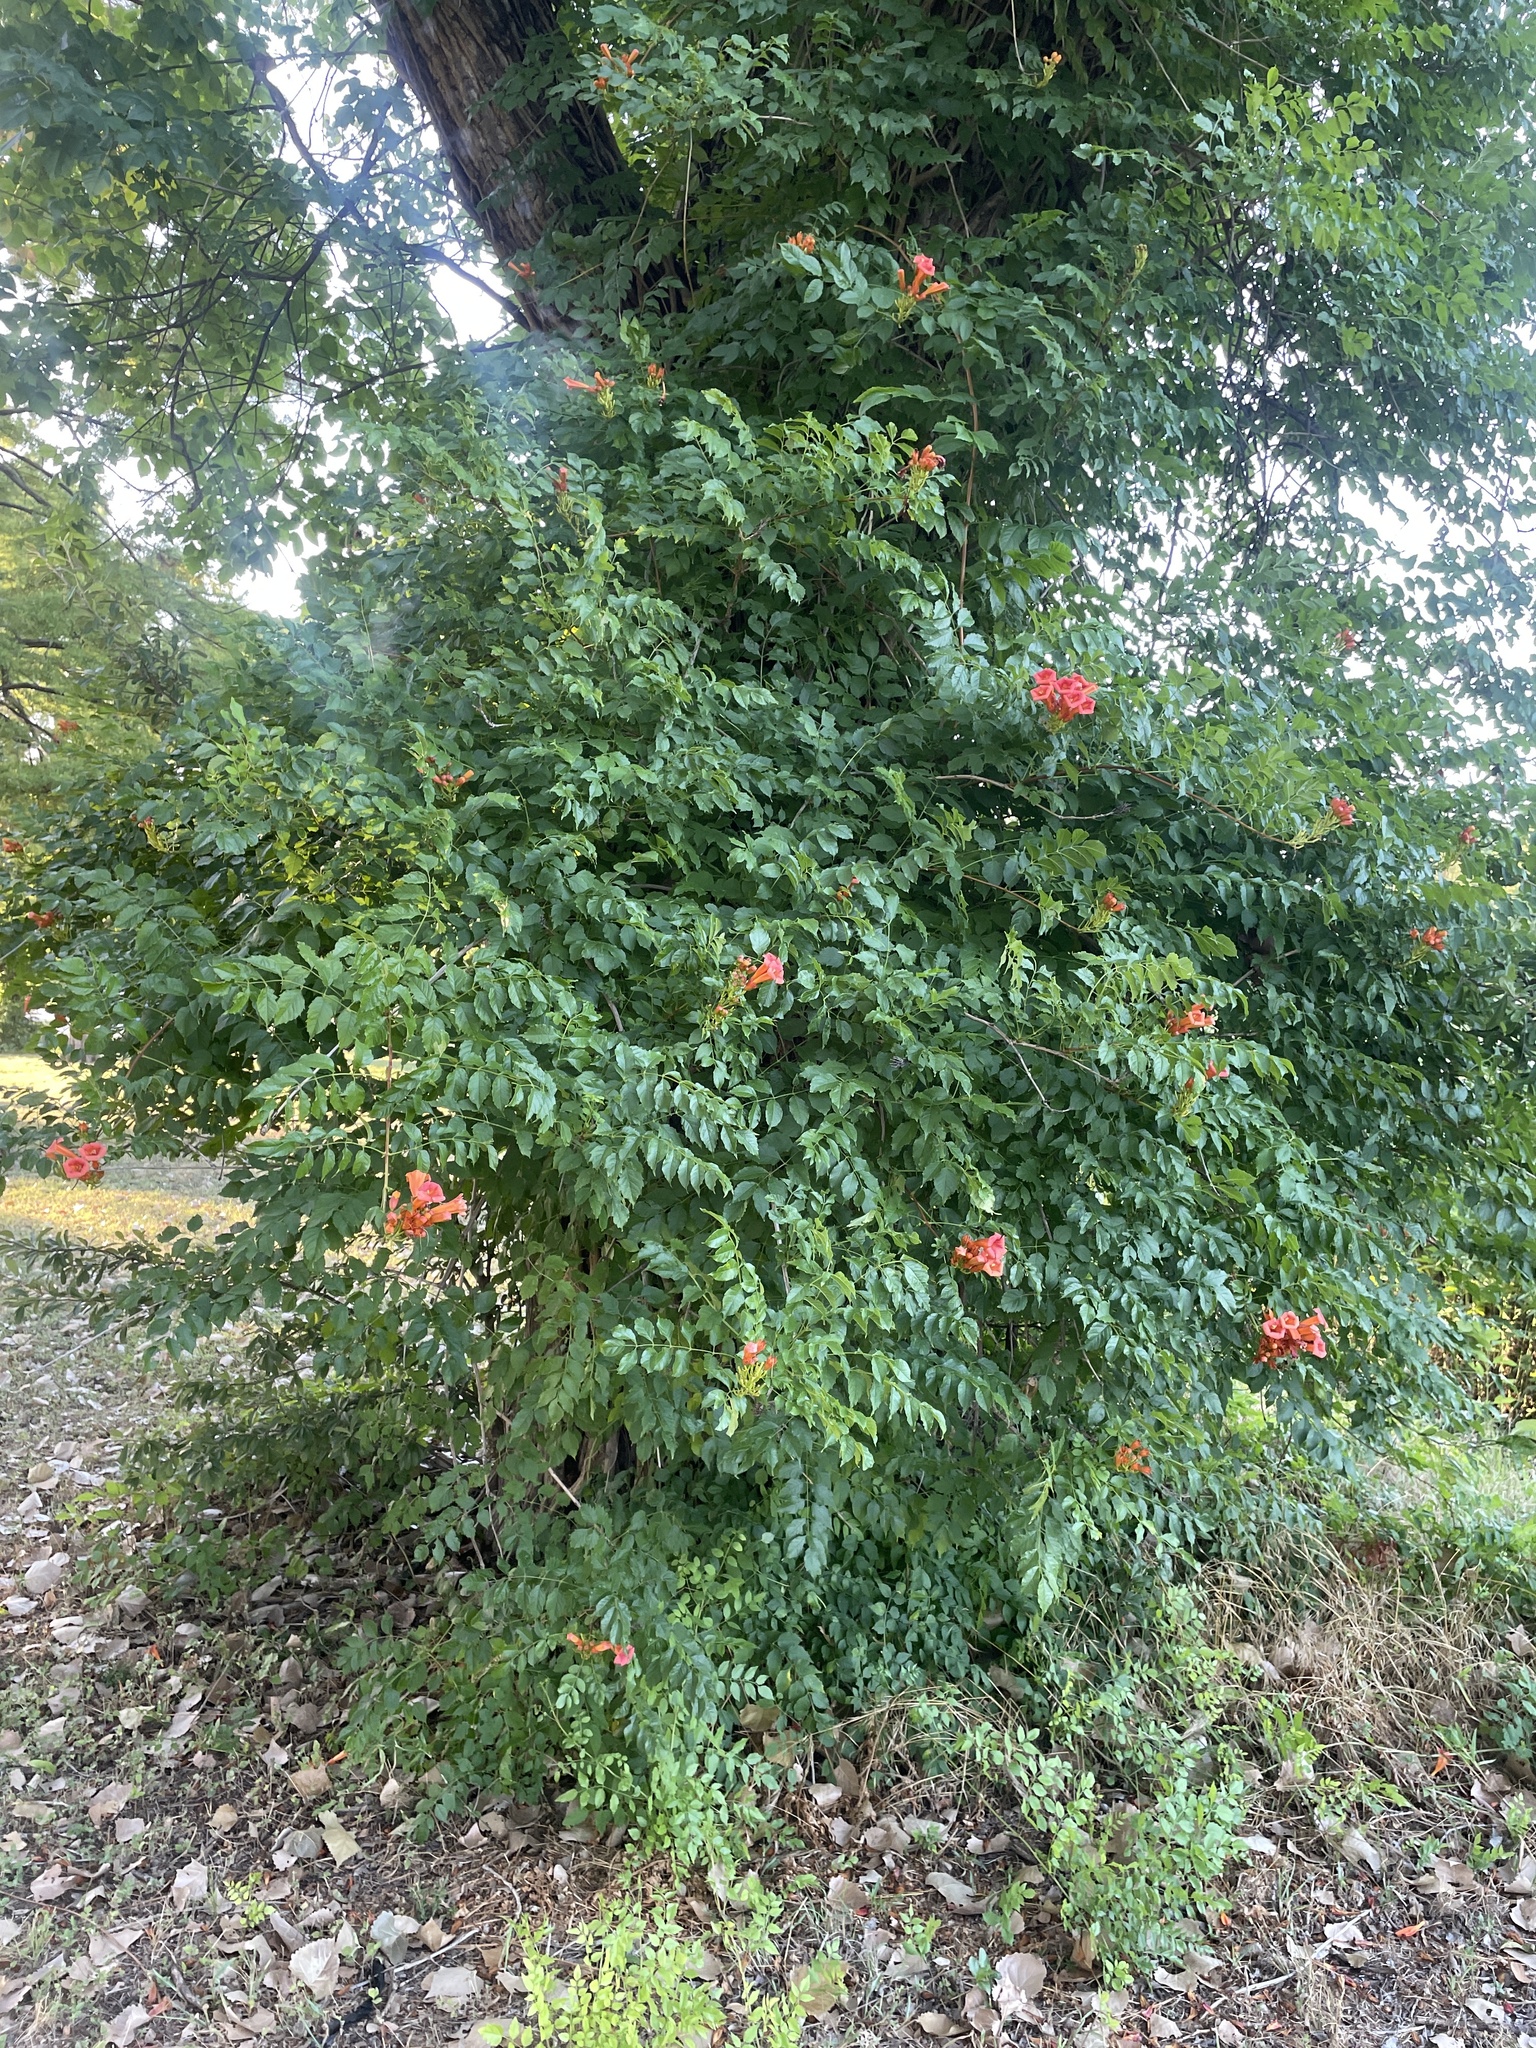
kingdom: Plantae
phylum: Tracheophyta
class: Magnoliopsida
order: Lamiales
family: Bignoniaceae
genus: Campsis
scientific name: Campsis radicans
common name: Trumpet-creeper
